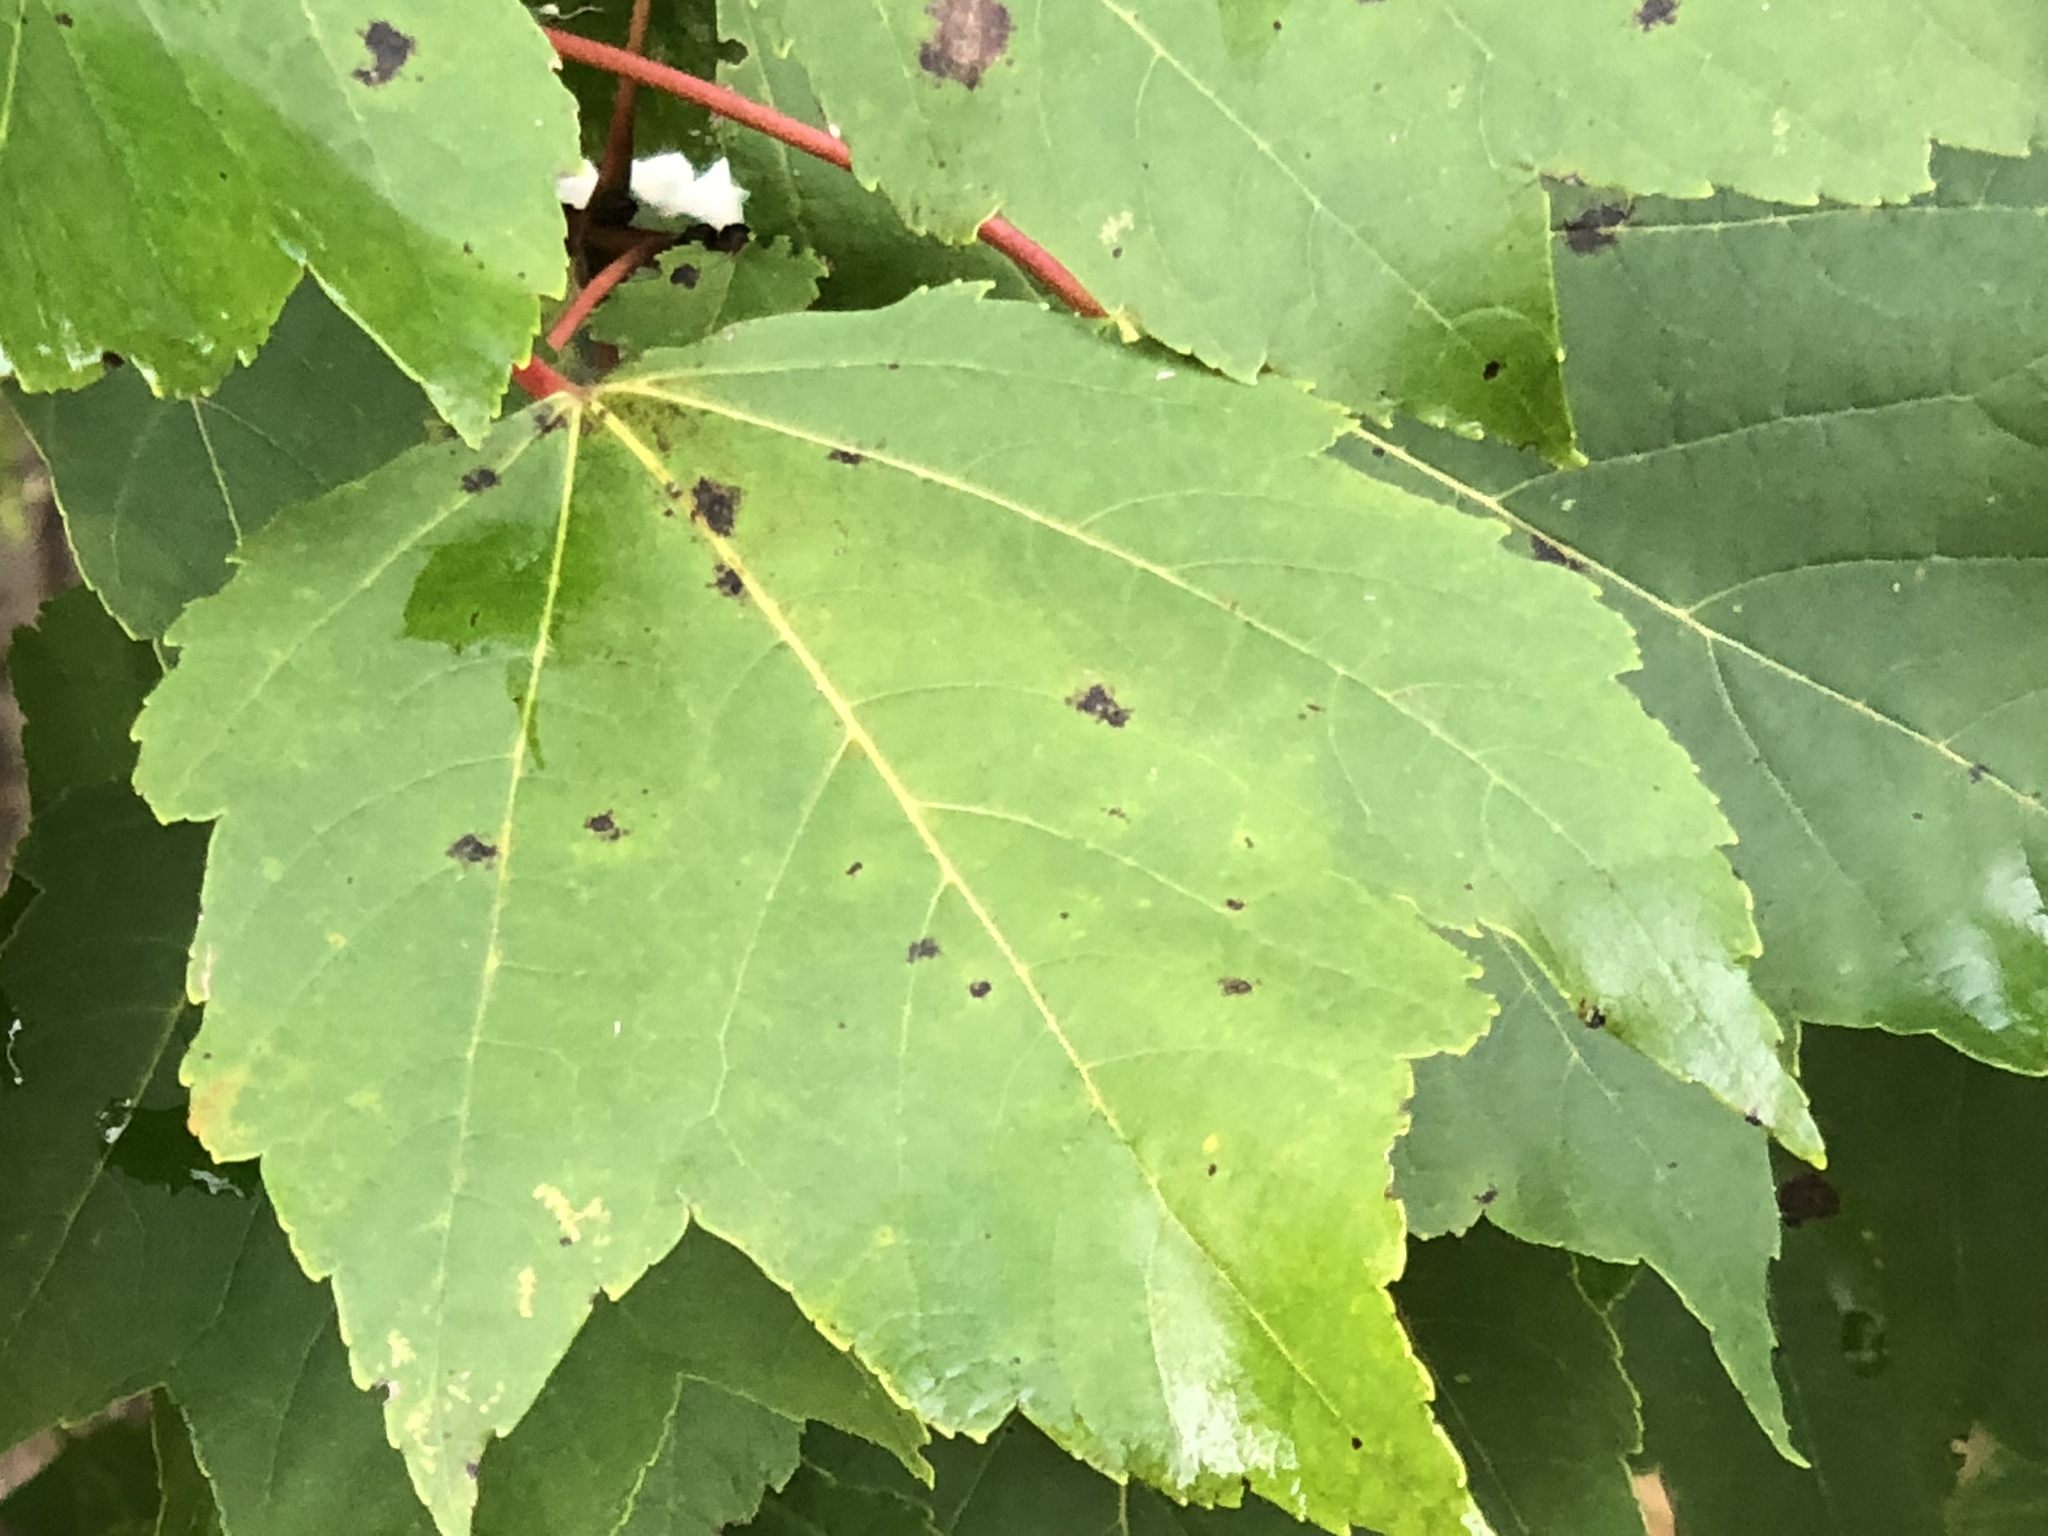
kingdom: Plantae
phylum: Tracheophyta
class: Magnoliopsida
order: Sapindales
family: Sapindaceae
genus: Acer
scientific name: Acer rubrum
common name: Red maple
